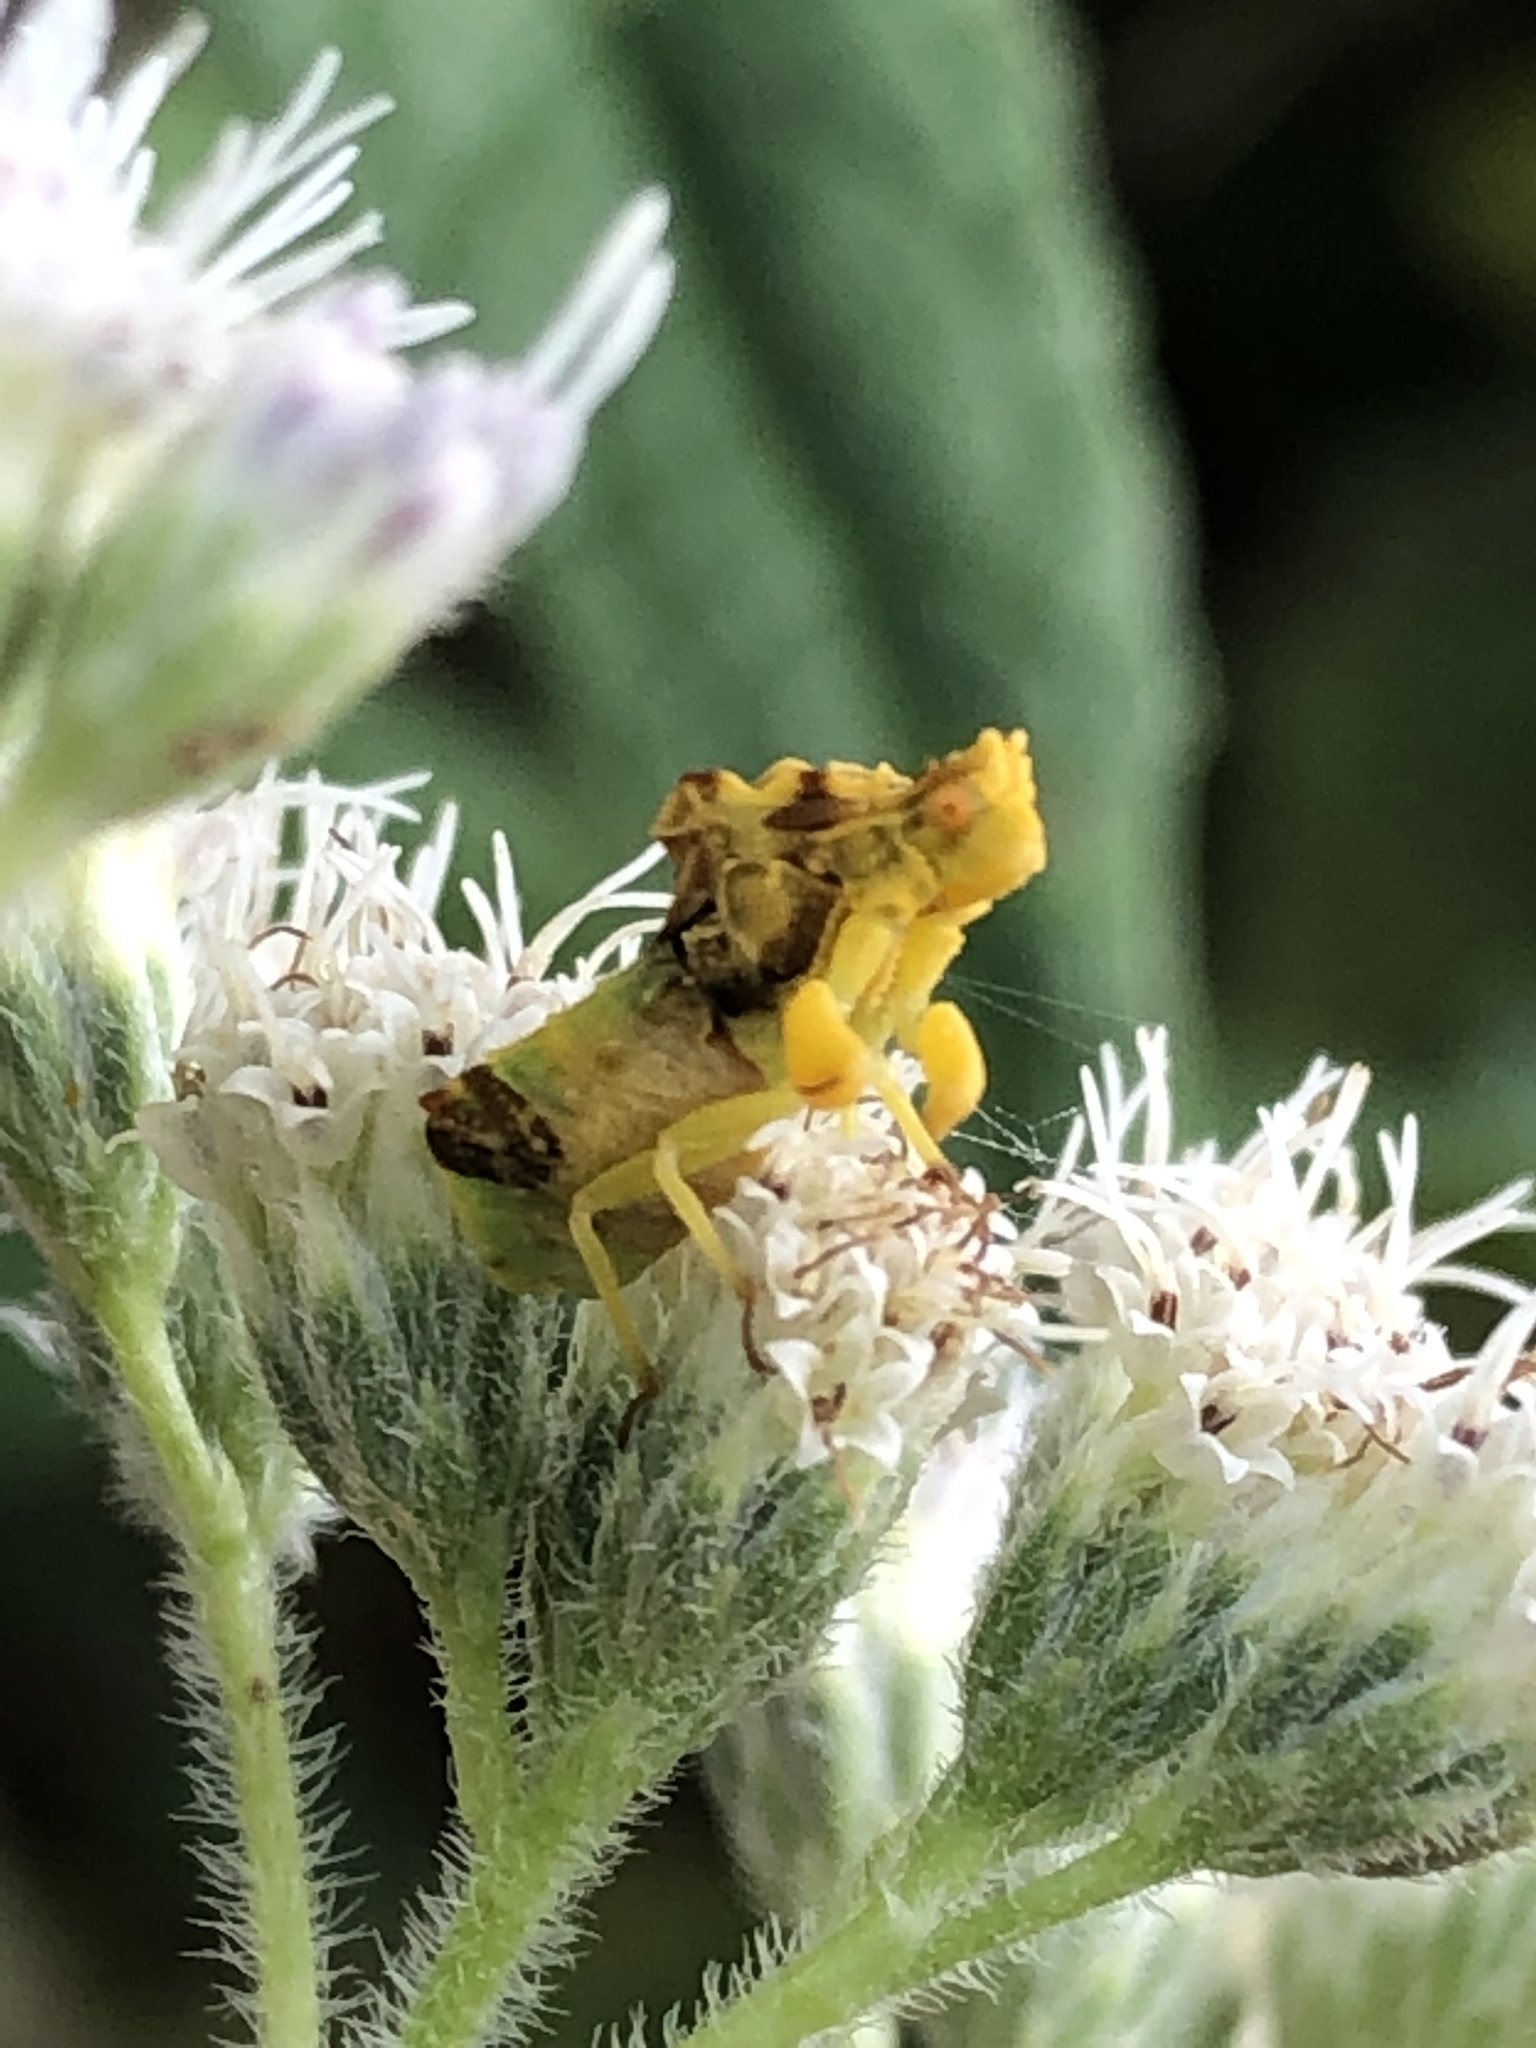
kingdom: Animalia
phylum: Arthropoda
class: Insecta
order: Hemiptera
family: Reduviidae
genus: Phymata
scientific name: Phymata fasciata
